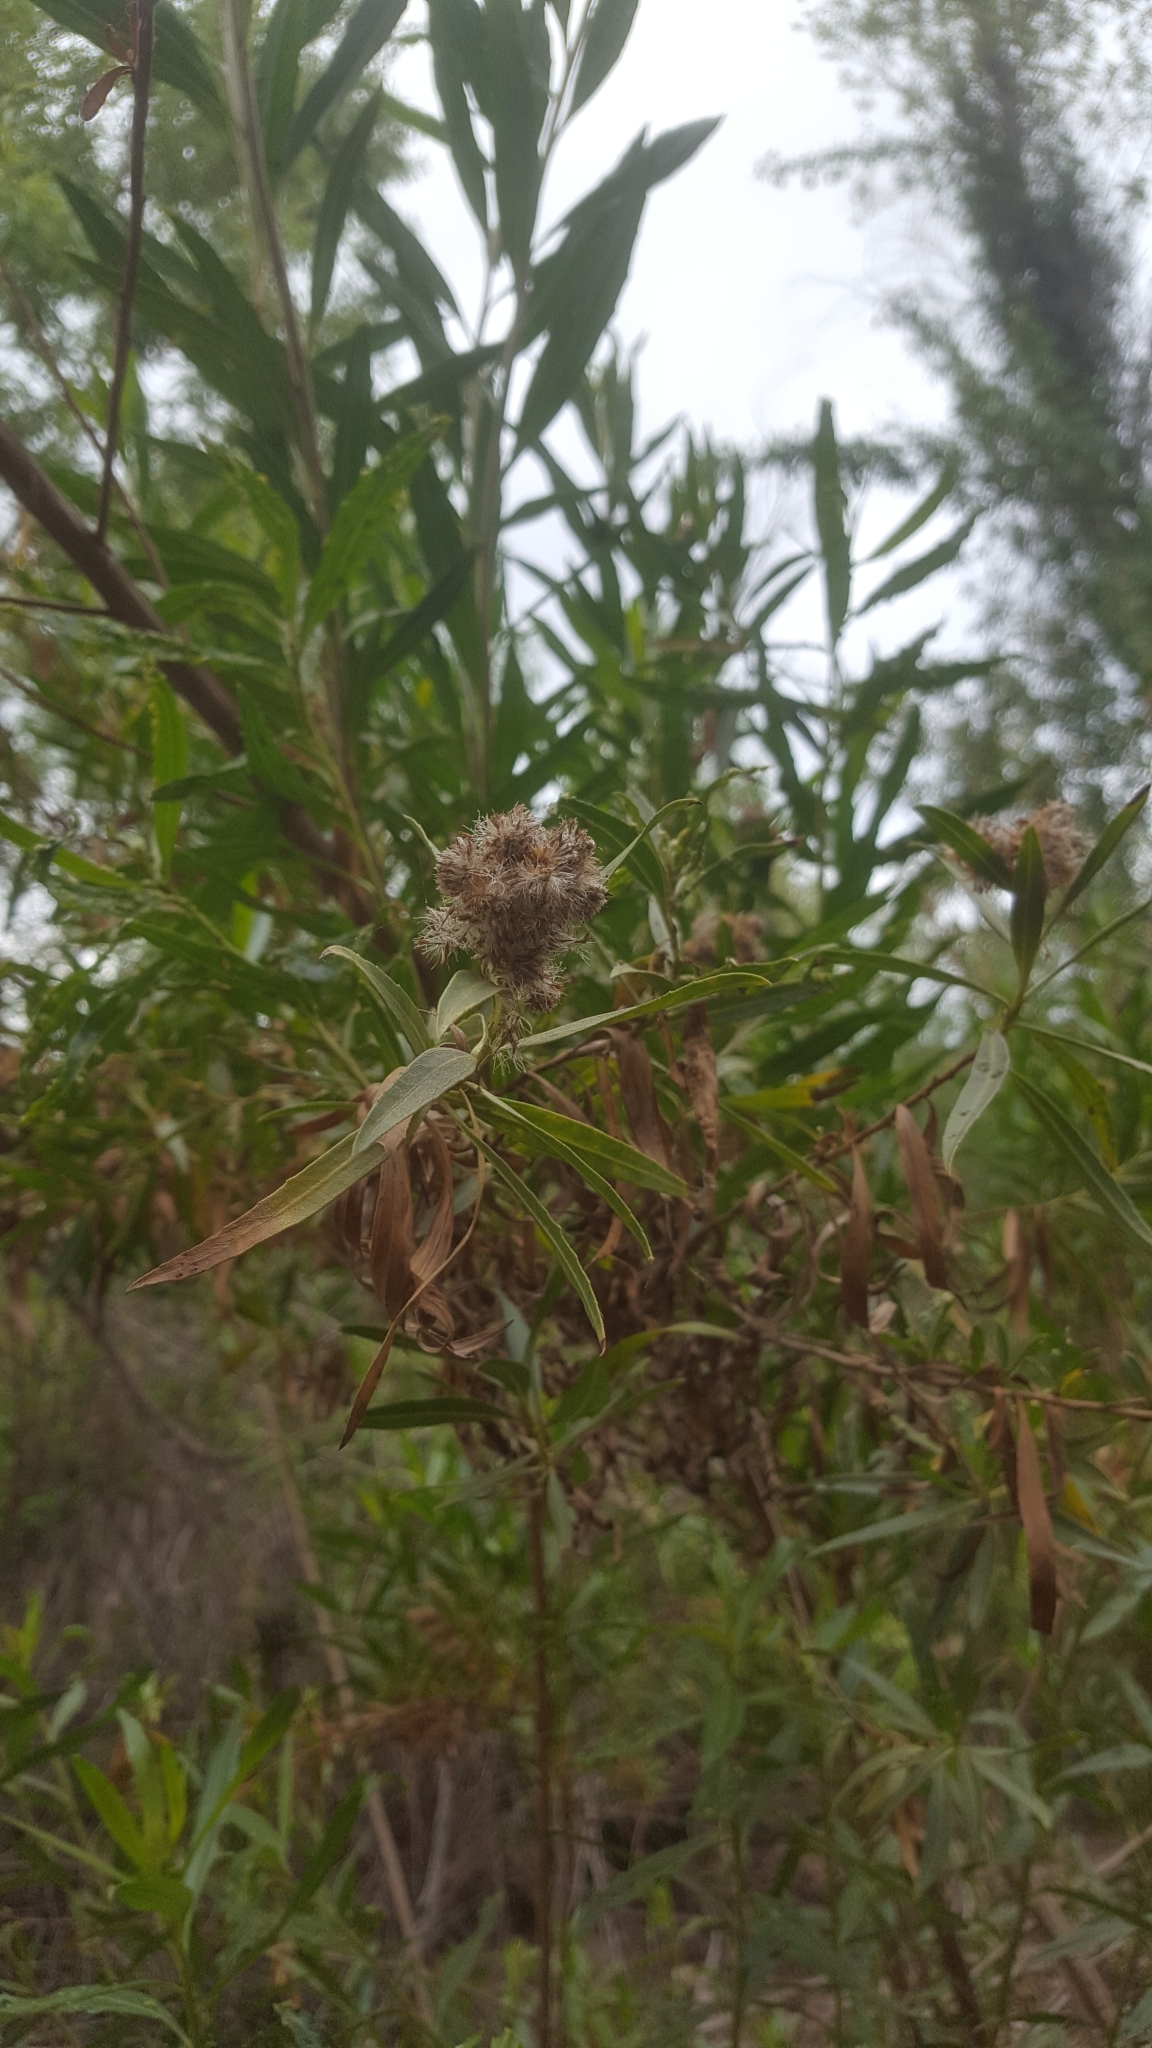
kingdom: Plantae
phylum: Tracheophyta
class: Magnoliopsida
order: Asterales
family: Asteraceae
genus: Baccharis
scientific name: Baccharis salicifolia
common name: Sticky baccharis
